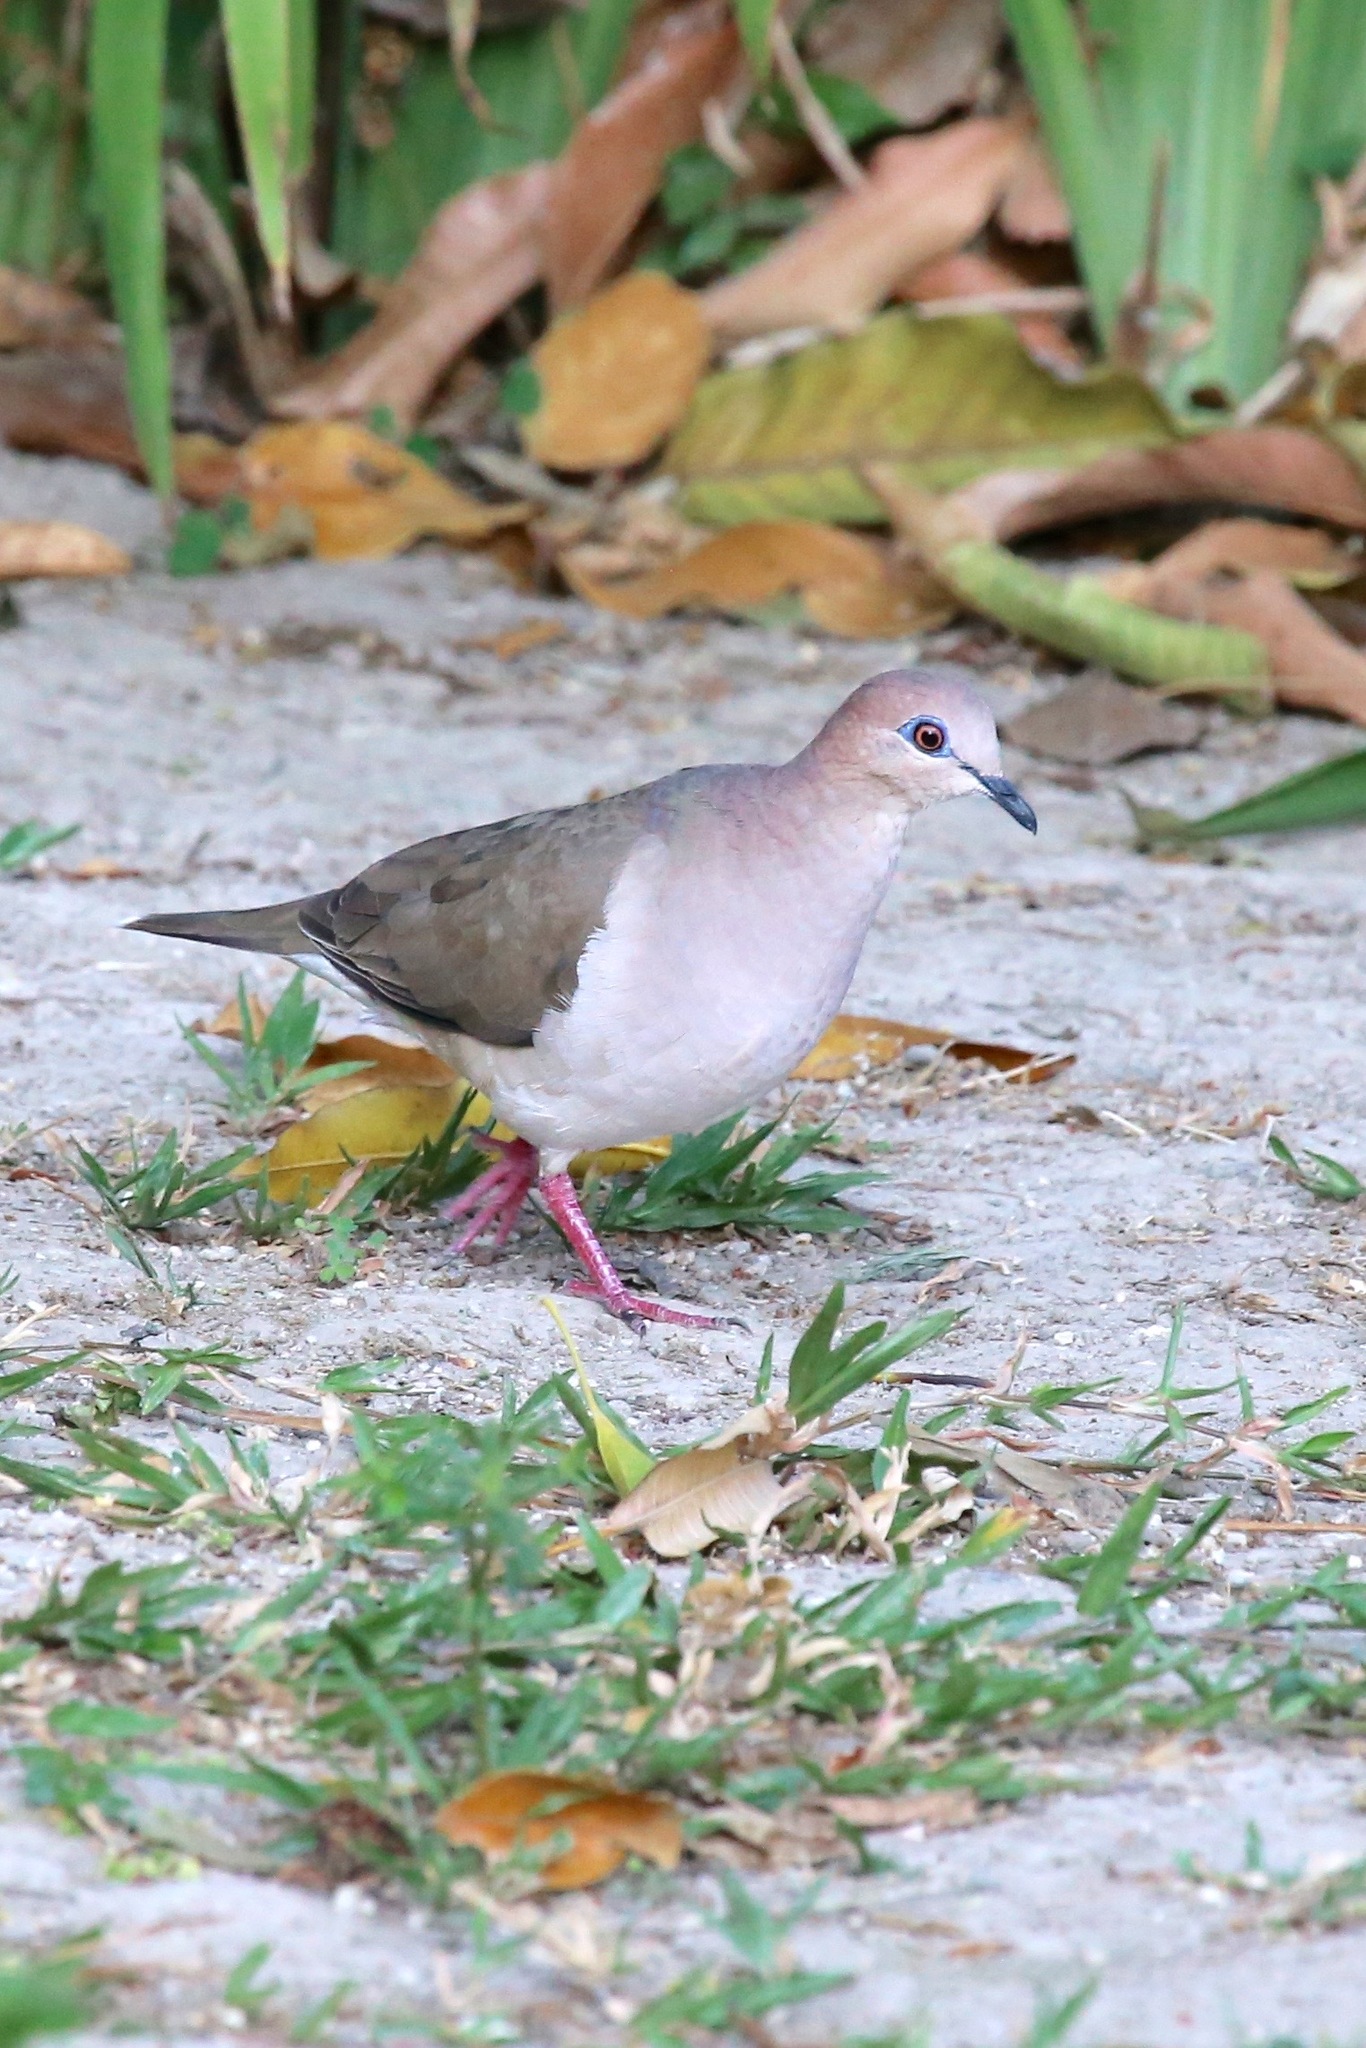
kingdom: Animalia
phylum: Chordata
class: Aves
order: Columbiformes
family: Columbidae
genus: Leptotila
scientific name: Leptotila verreauxi
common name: White-tipped dove
